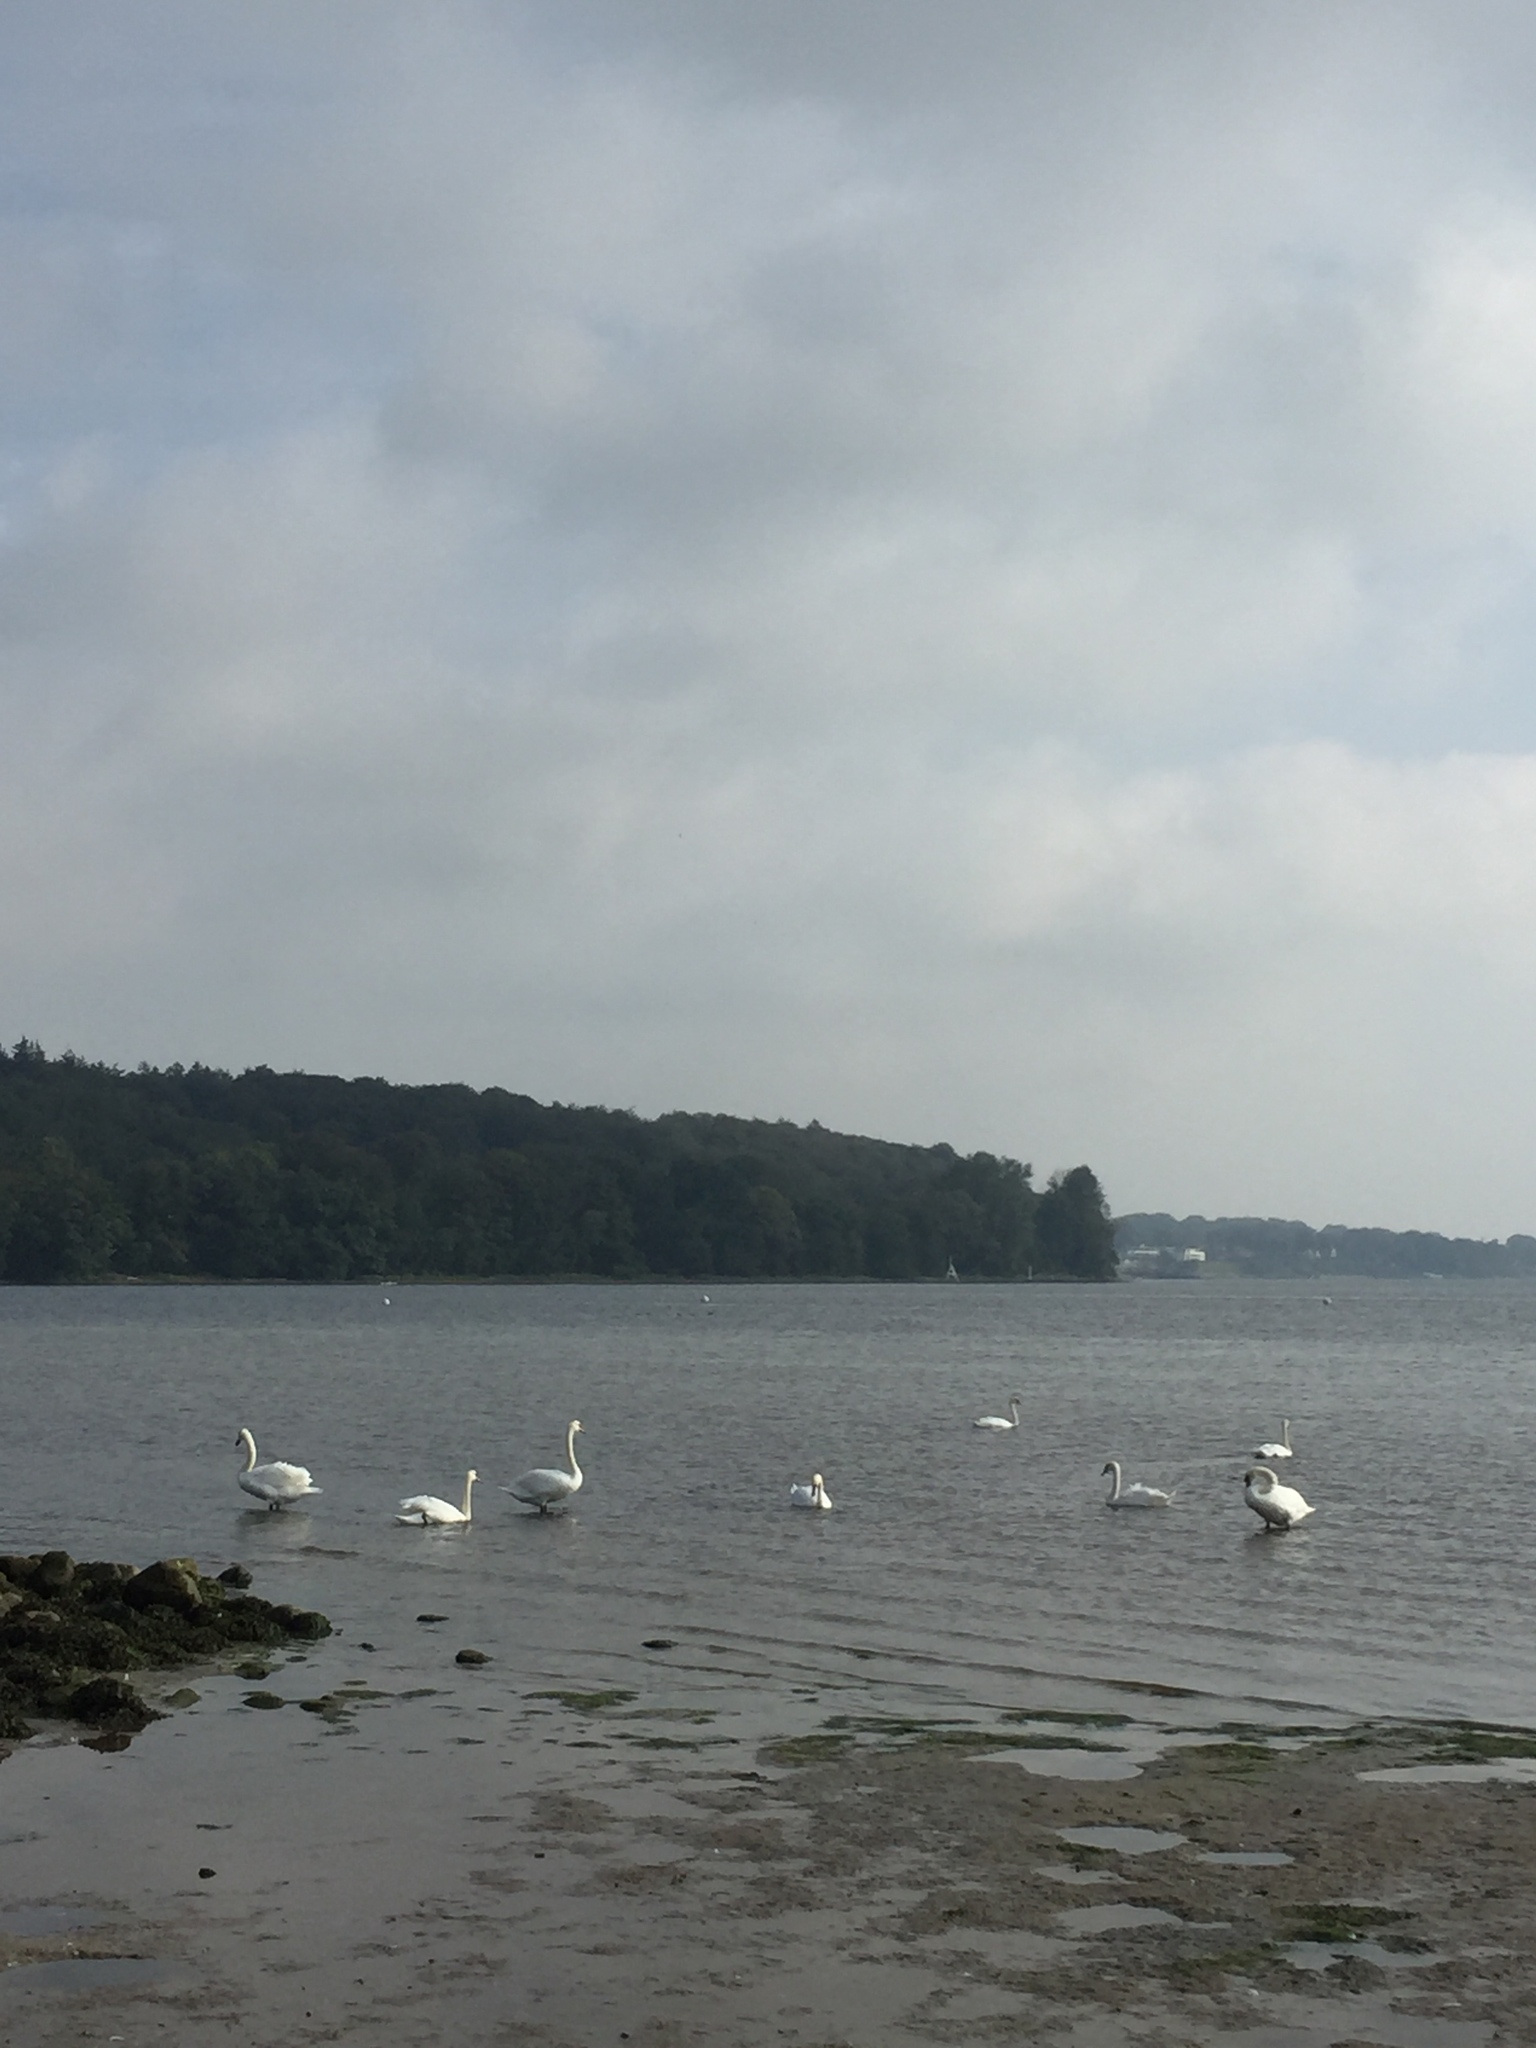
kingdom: Animalia
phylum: Chordata
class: Aves
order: Anseriformes
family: Anatidae
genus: Cygnus
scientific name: Cygnus olor
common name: Mute swan
